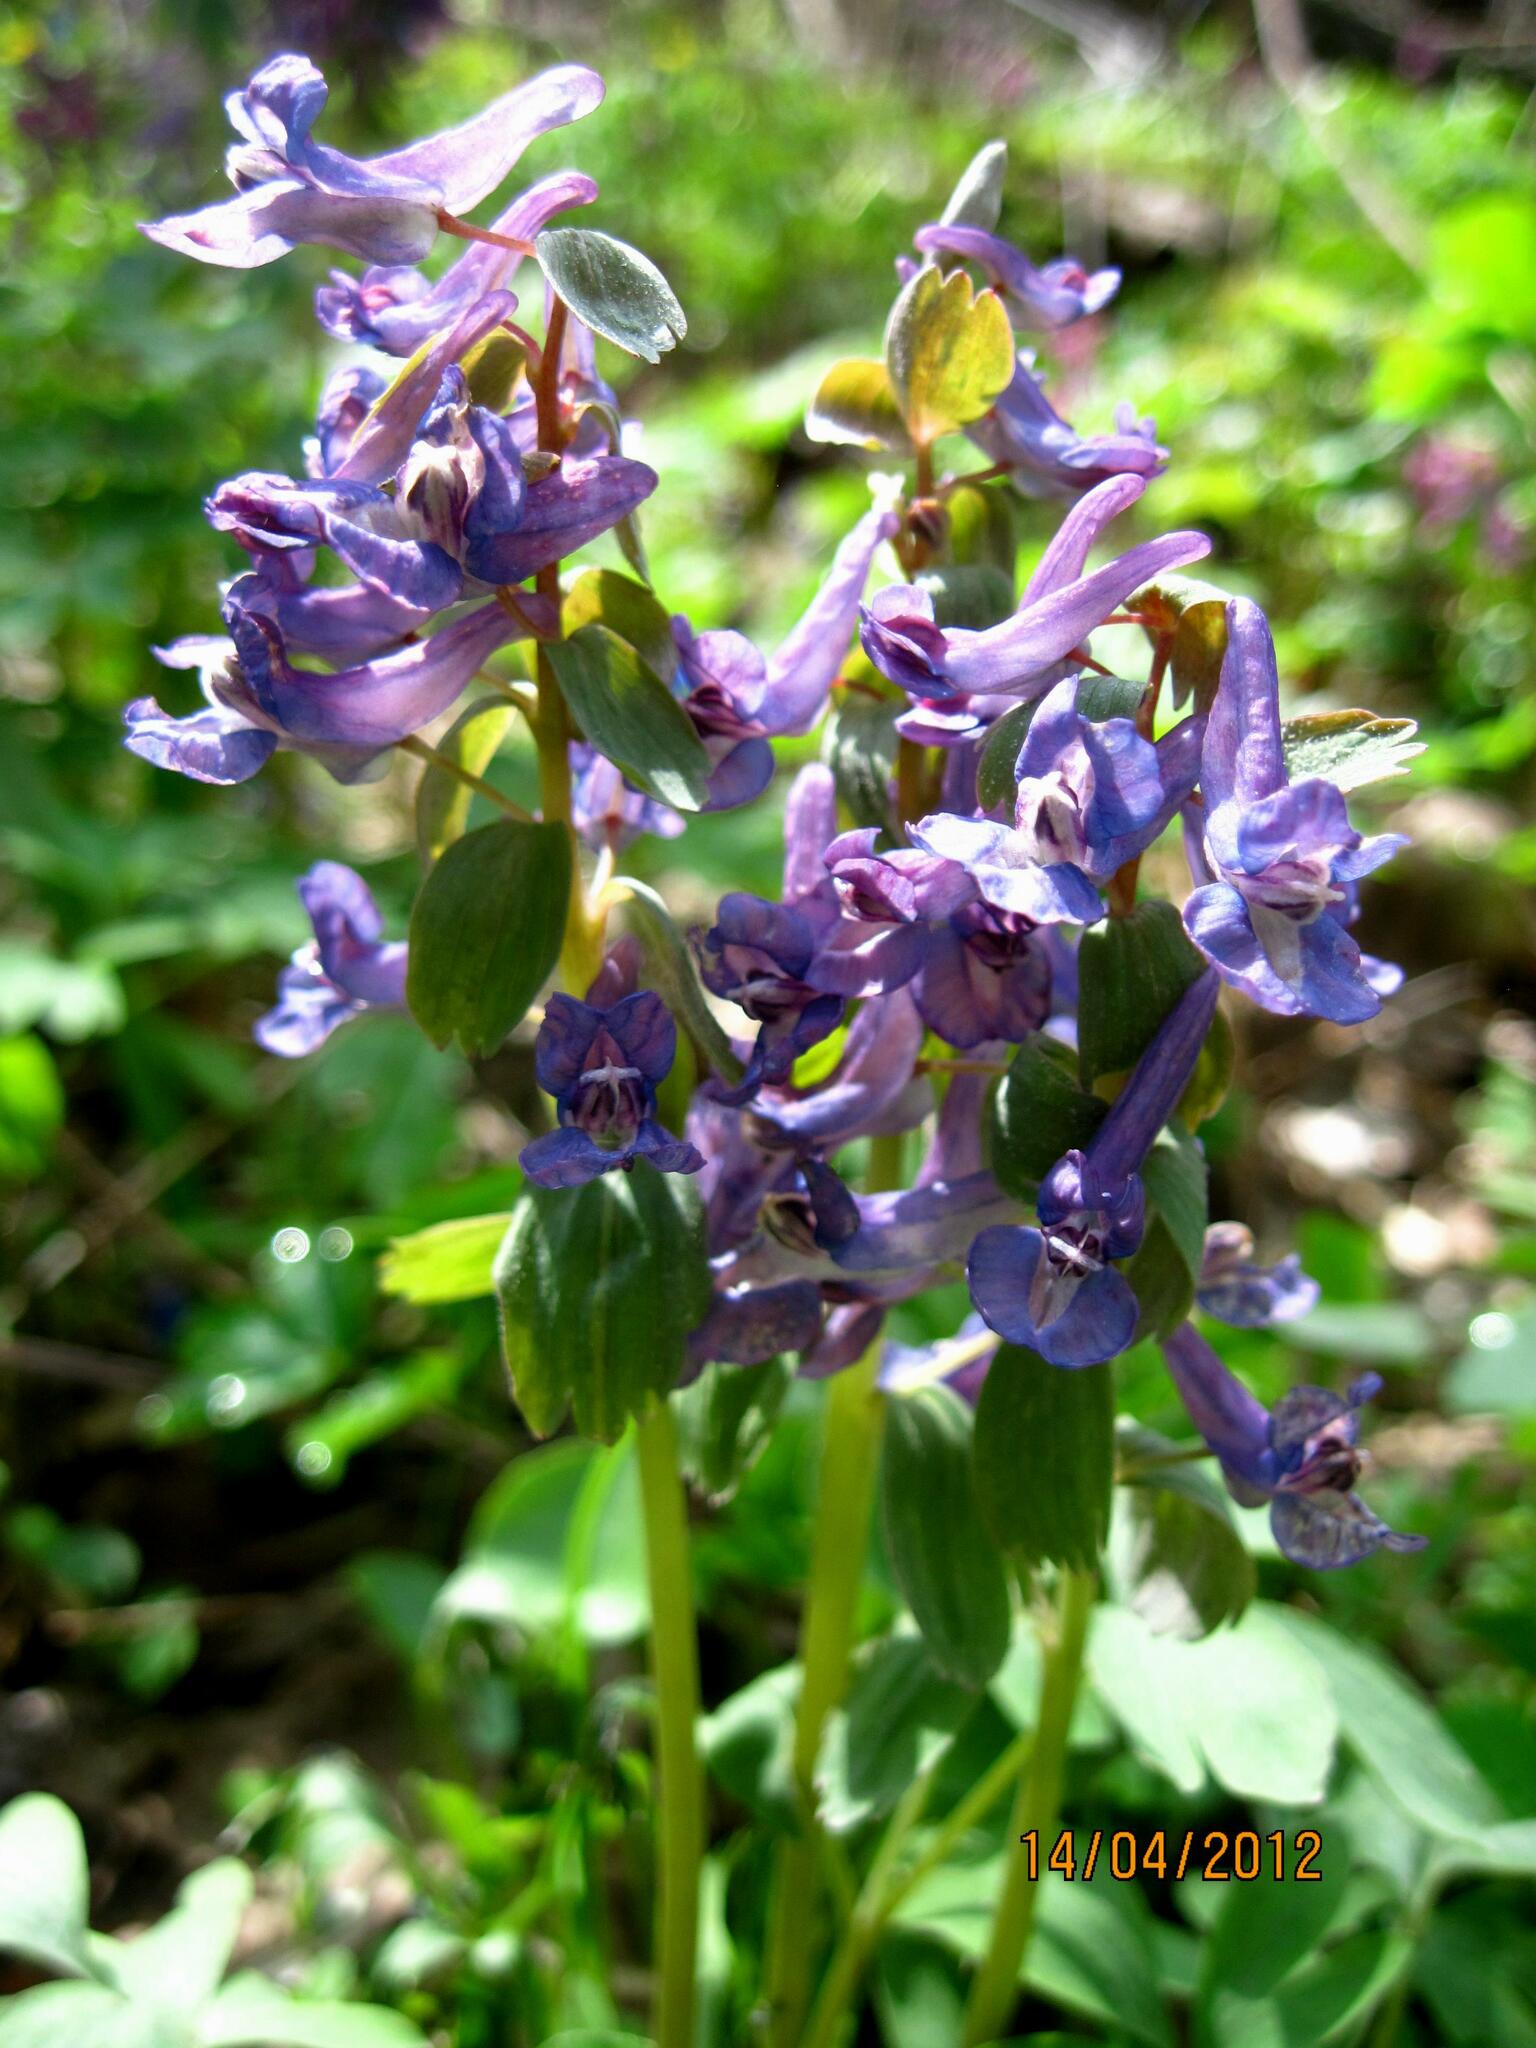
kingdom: Plantae
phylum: Tracheophyta
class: Magnoliopsida
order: Ranunculales
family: Papaveraceae
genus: Corydalis
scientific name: Corydalis solida
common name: Bird-in-a-bush
